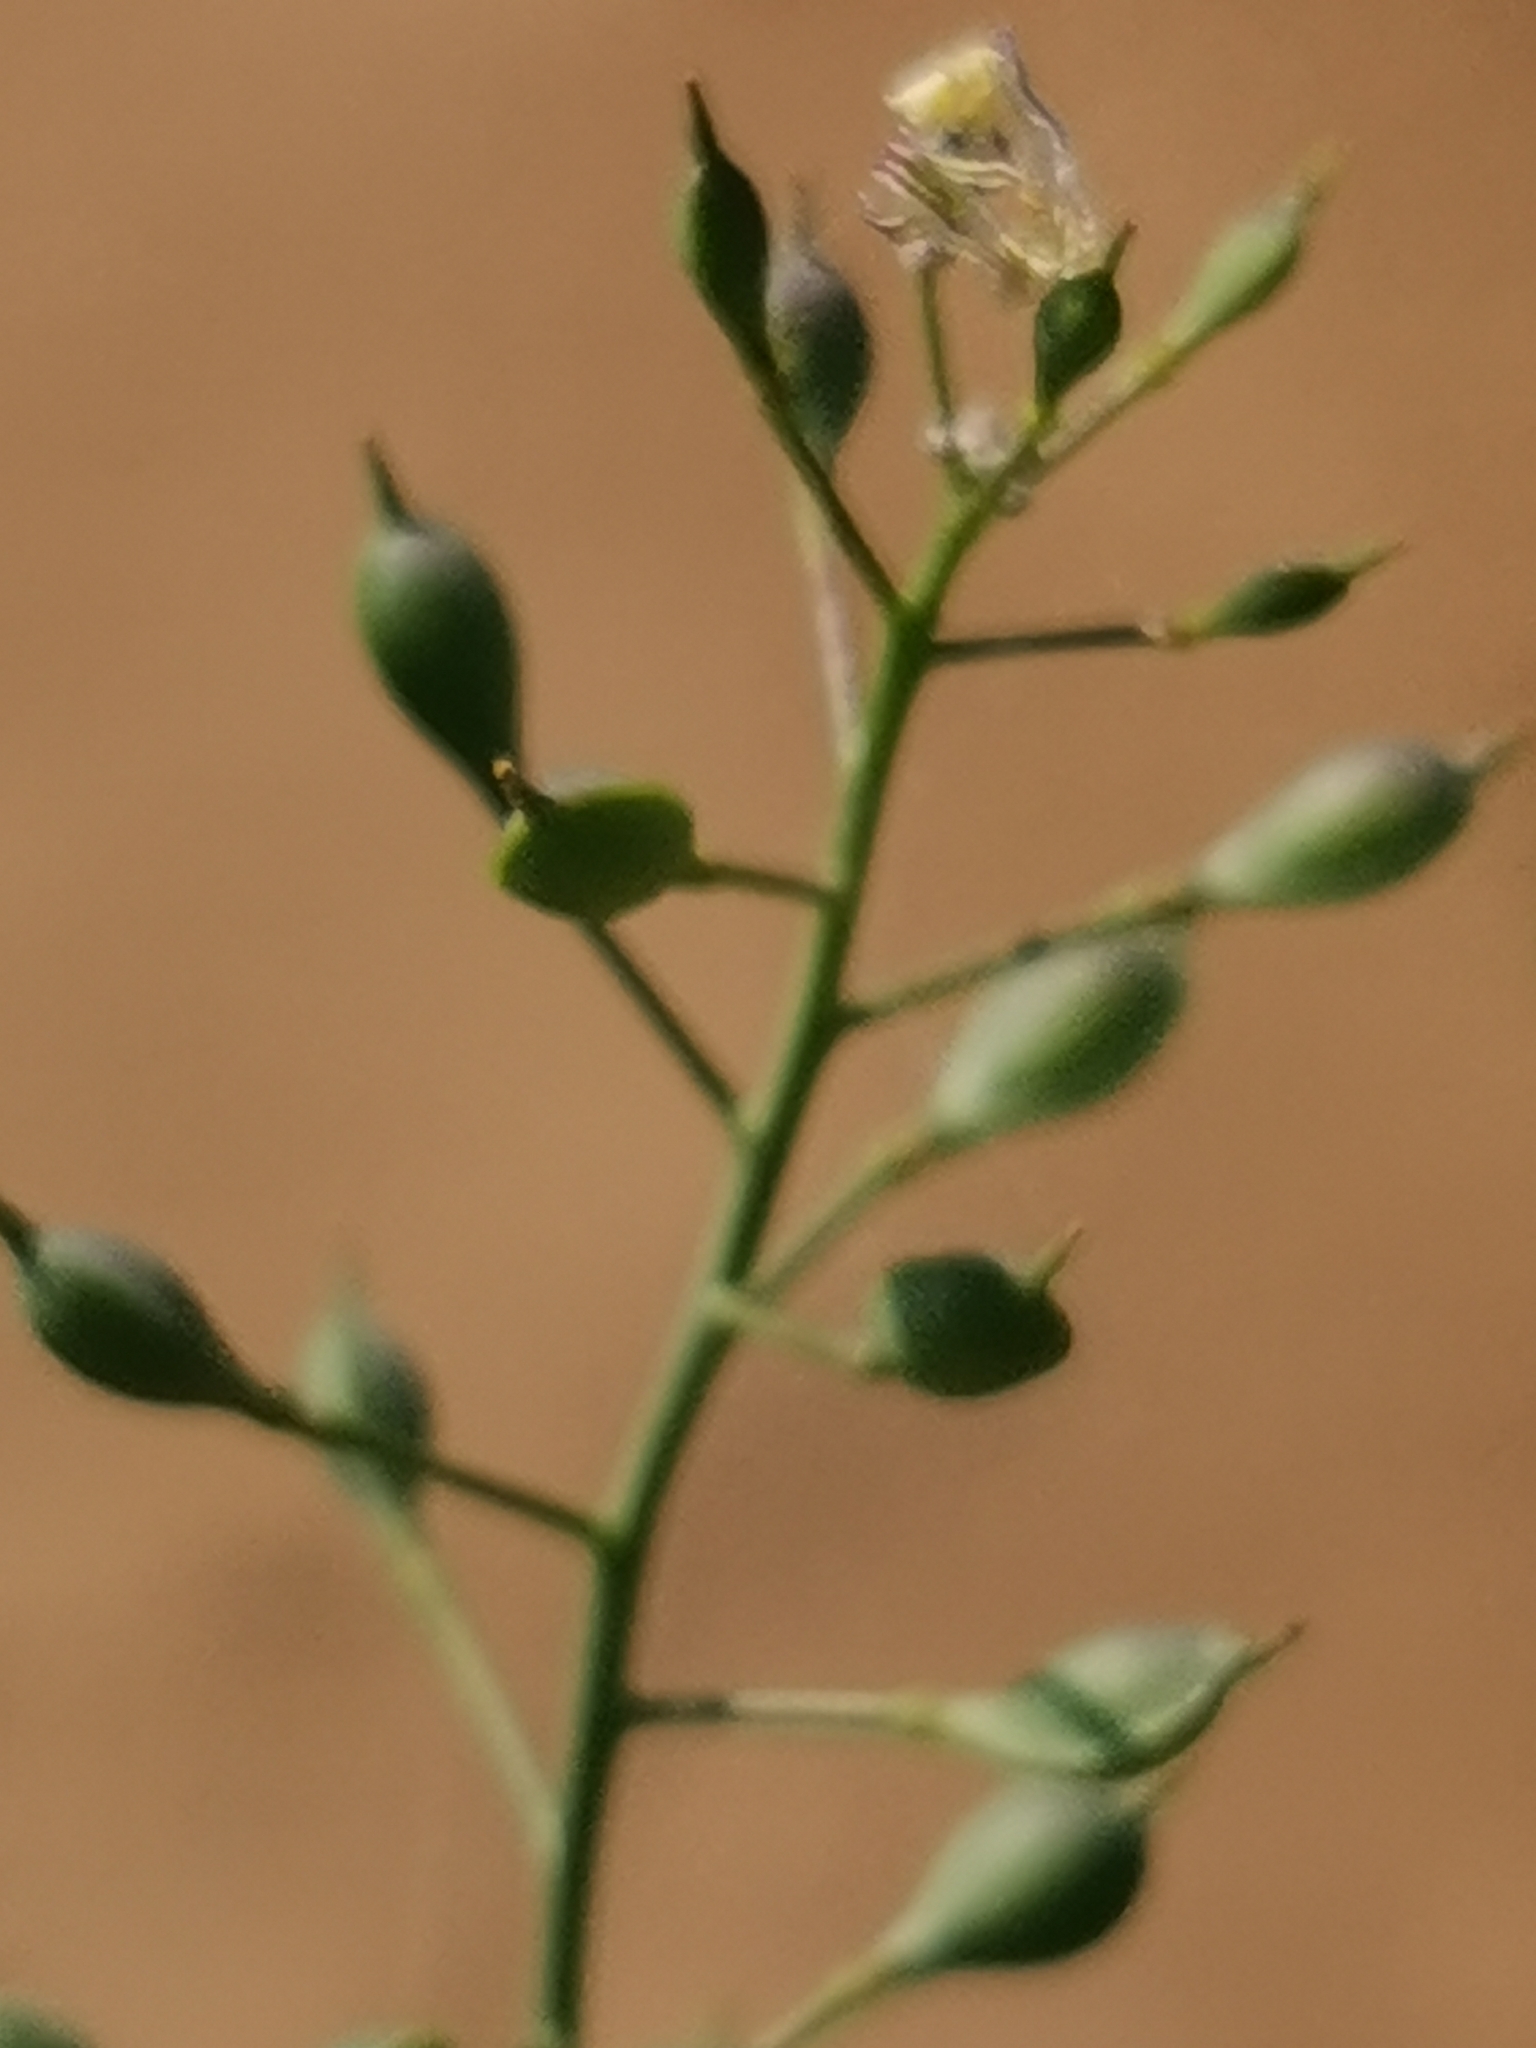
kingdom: Plantae
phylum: Tracheophyta
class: Magnoliopsida
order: Brassicales
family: Brassicaceae
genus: Camelina
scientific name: Camelina microcarpa
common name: Lesser gold-of-pleasure
